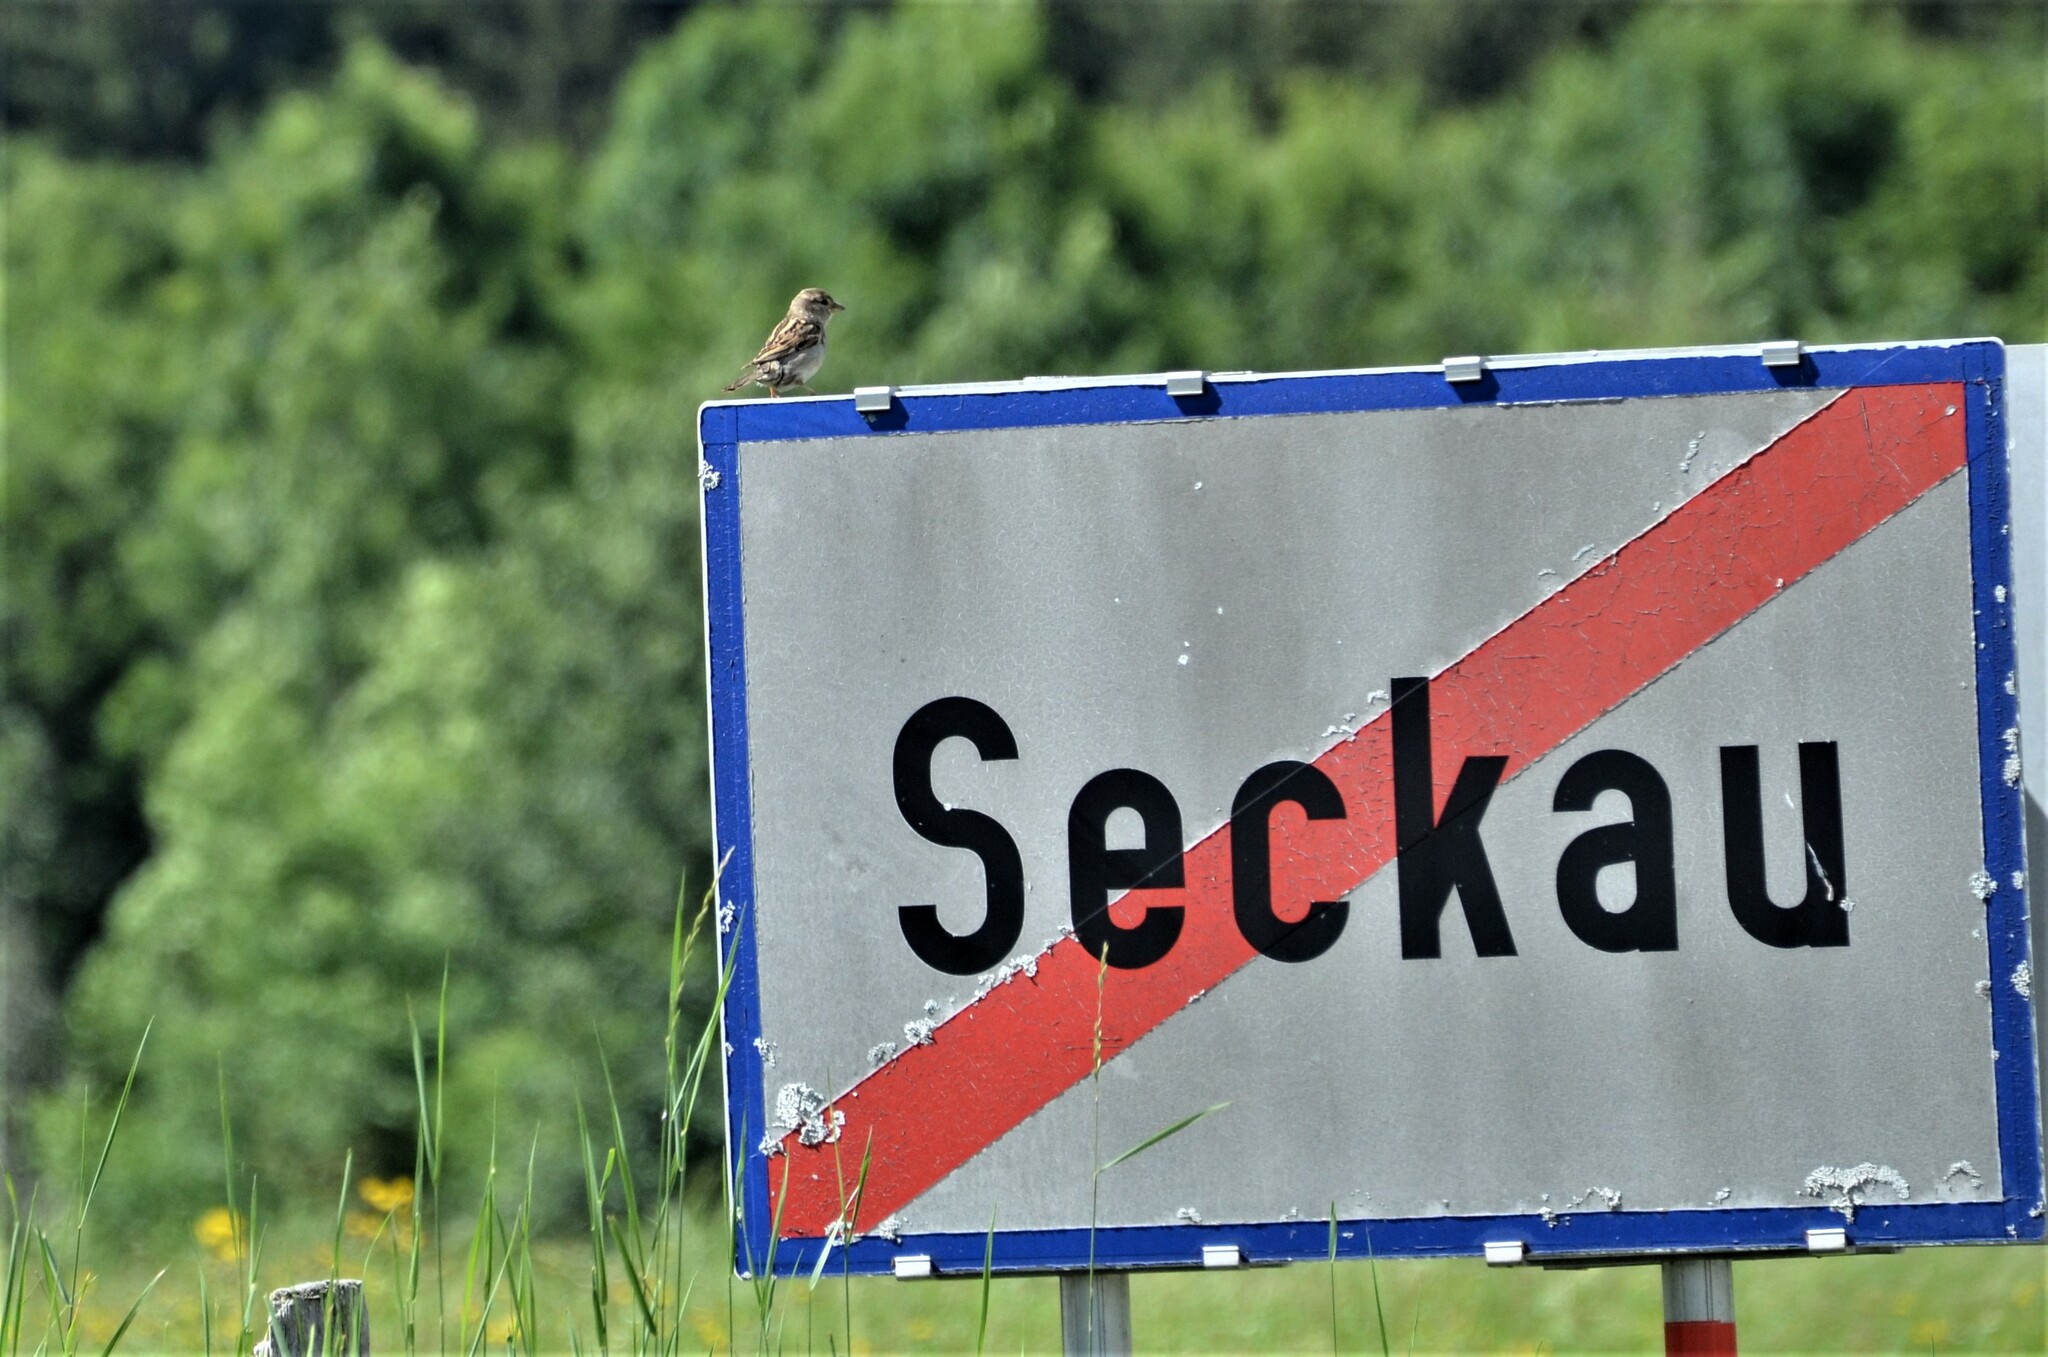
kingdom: Animalia
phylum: Chordata
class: Aves
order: Passeriformes
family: Passeridae
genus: Passer
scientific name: Passer domesticus
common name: House sparrow
